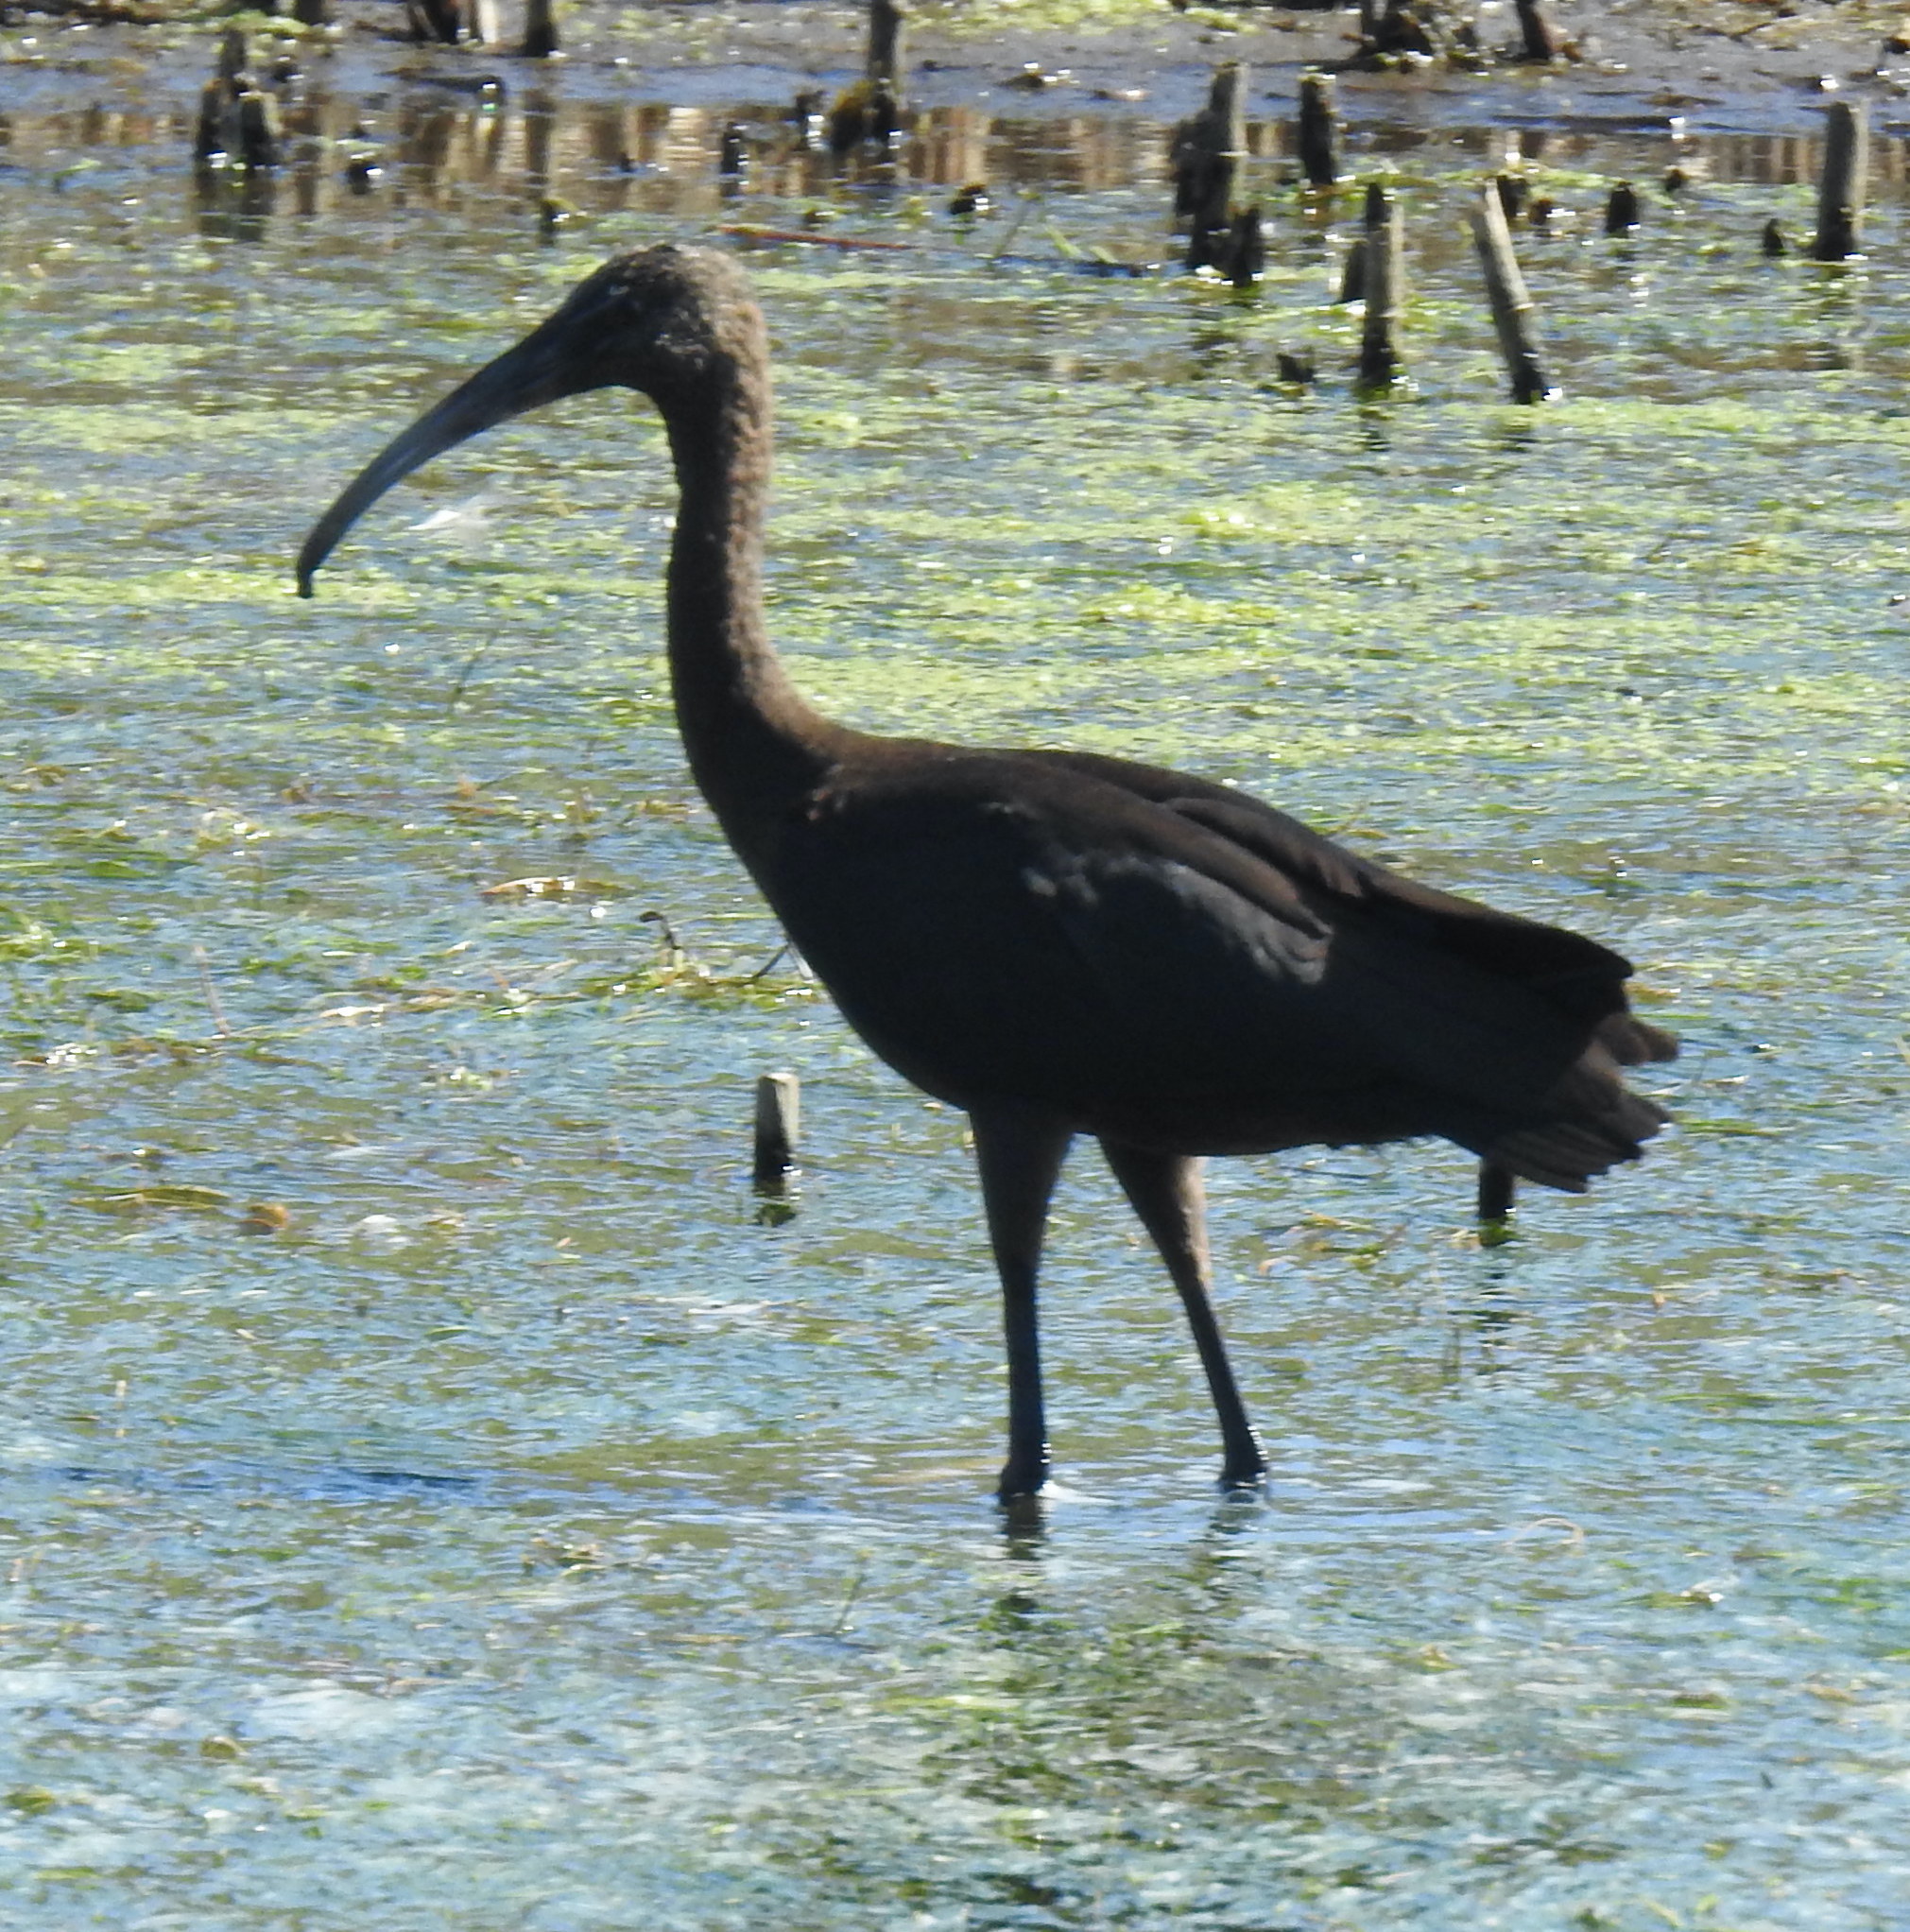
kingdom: Animalia
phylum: Chordata
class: Aves
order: Pelecaniformes
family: Threskiornithidae
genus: Plegadis
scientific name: Plegadis falcinellus
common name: Glossy ibis
